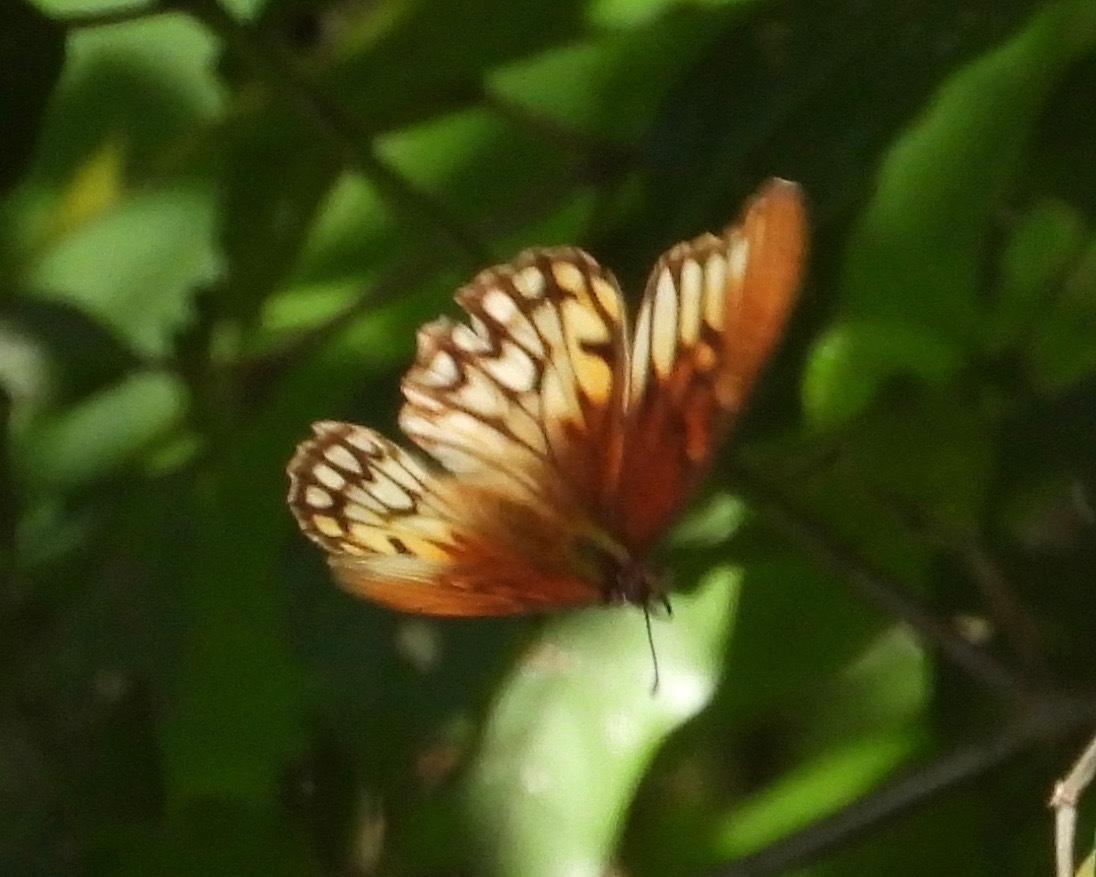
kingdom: Animalia
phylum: Arthropoda
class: Insecta
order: Lepidoptera
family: Nymphalidae
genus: Dione
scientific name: Dione moneta
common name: Mexican silverspot
